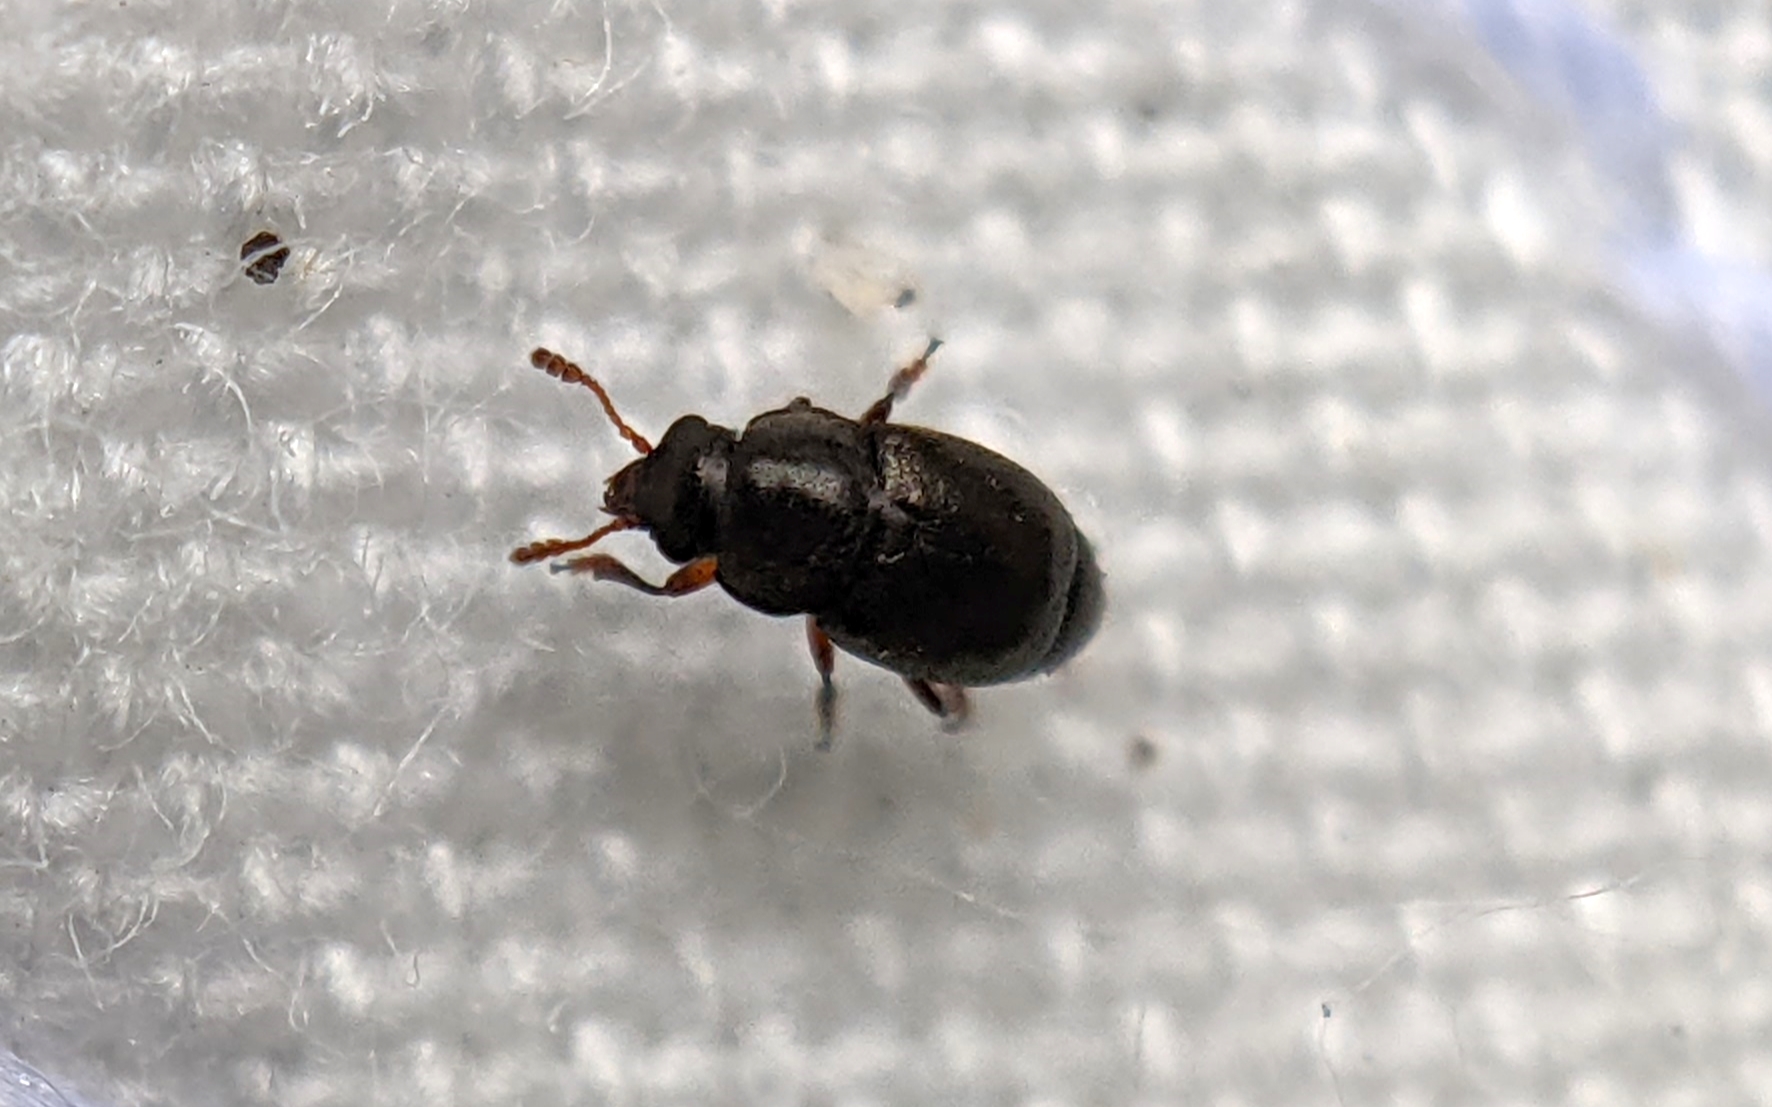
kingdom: Animalia
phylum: Arthropoda
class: Insecta
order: Coleoptera
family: Kateretidae
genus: Brachypterus
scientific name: Brachypterus urticae
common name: Sap beetle
